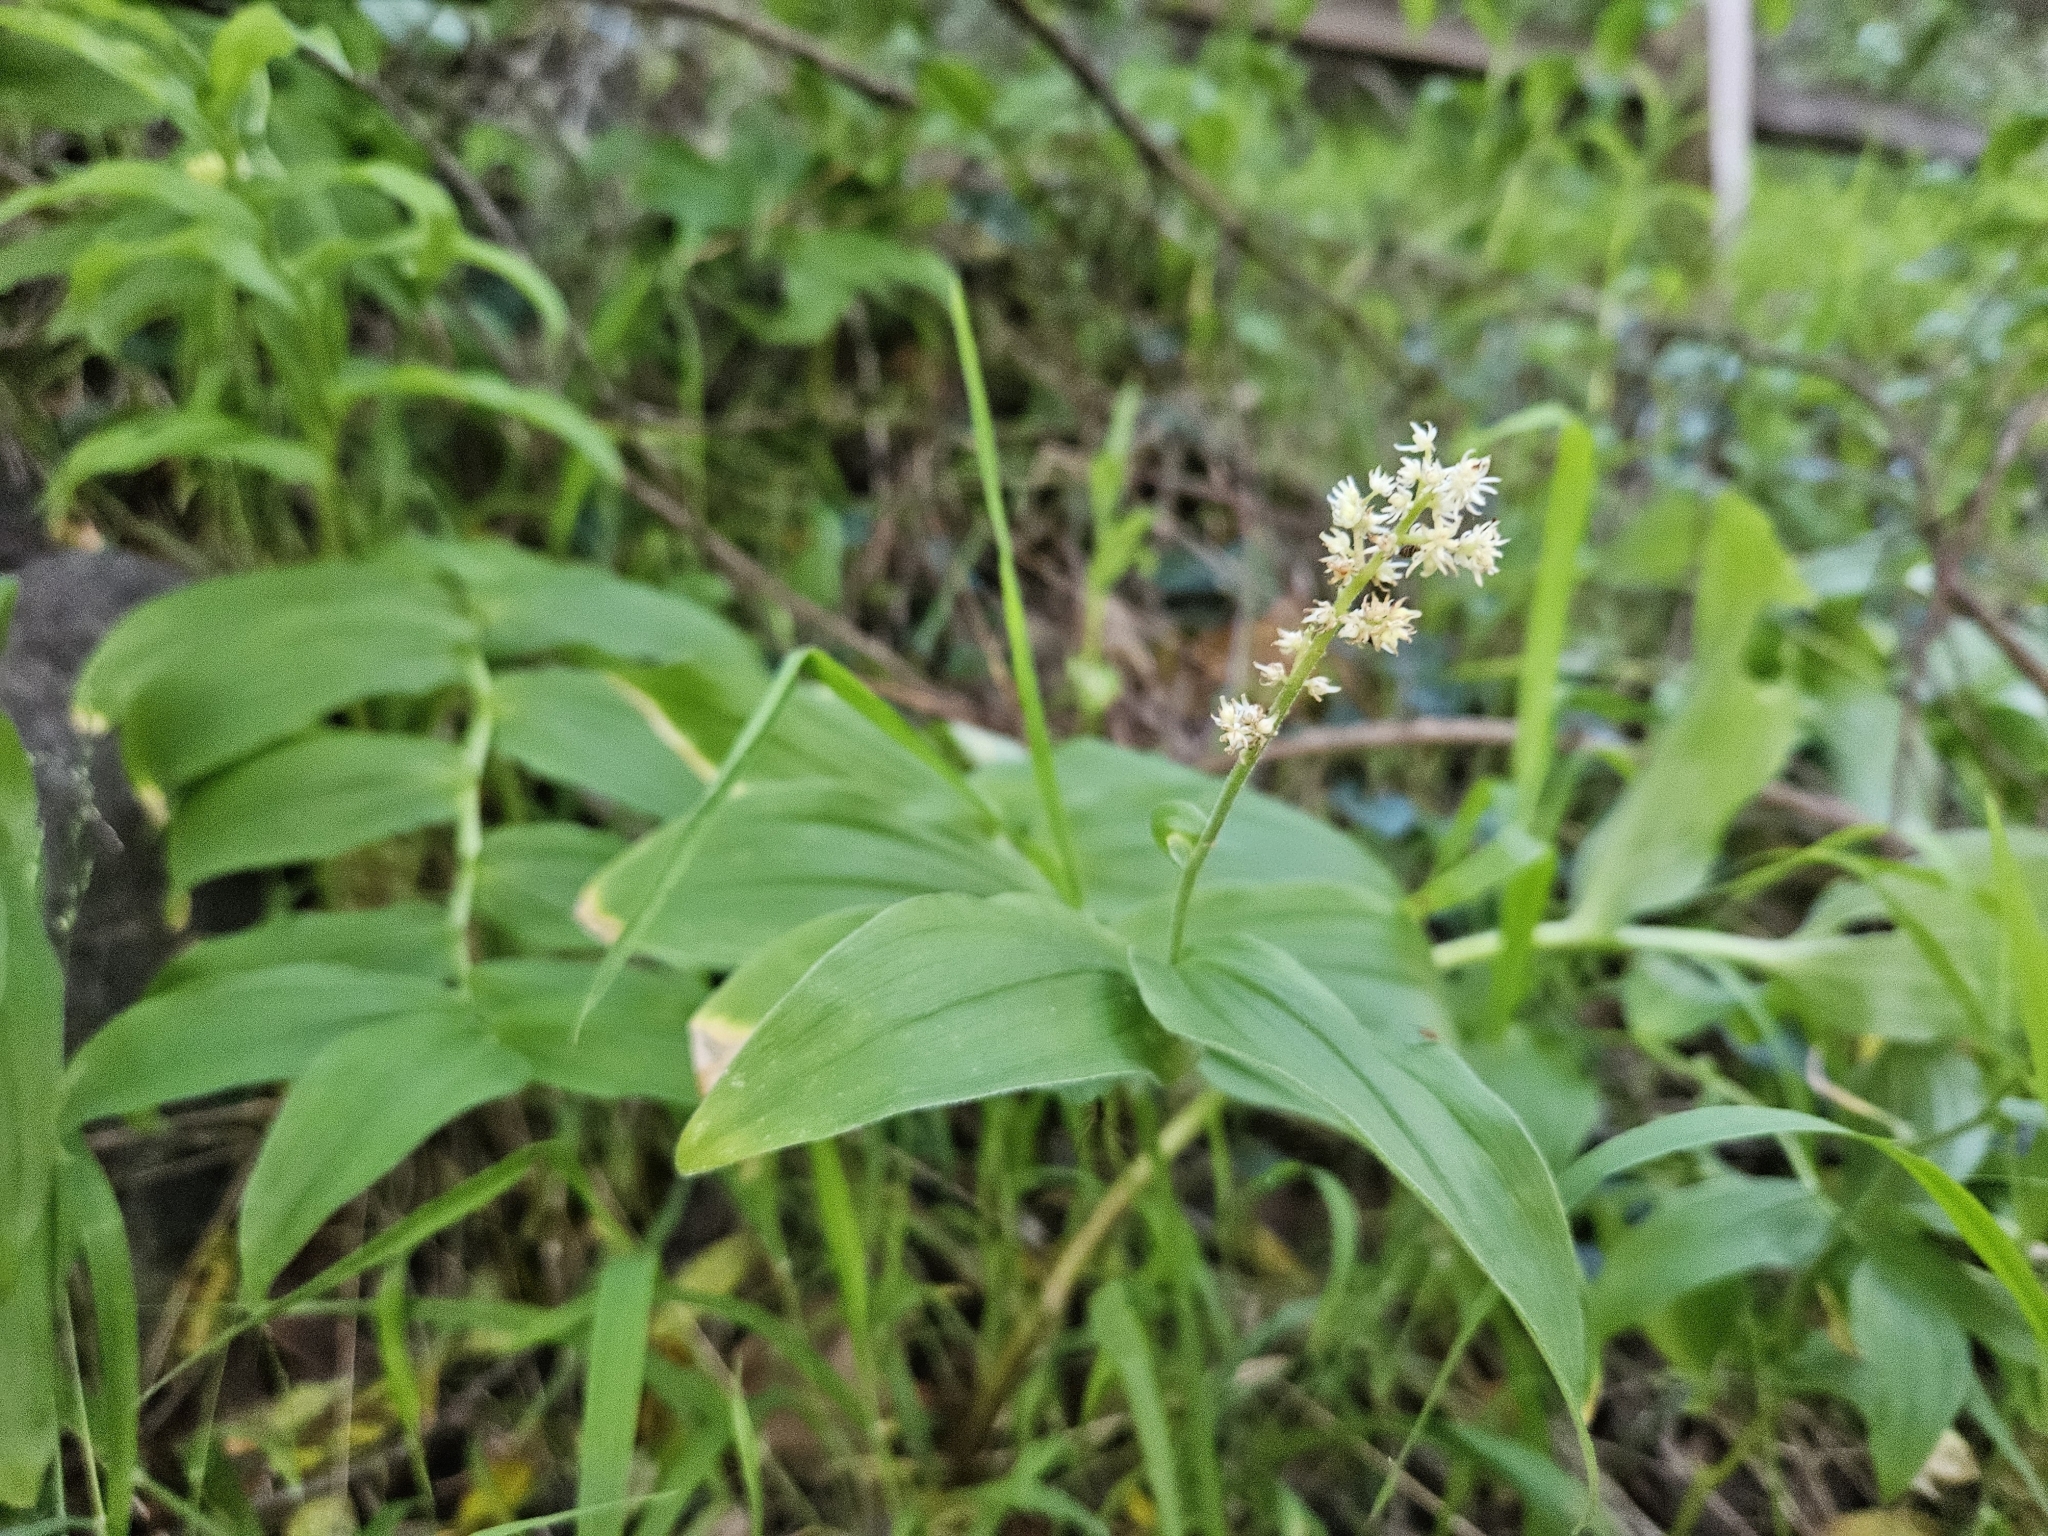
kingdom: Plantae
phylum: Tracheophyta
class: Liliopsida
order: Asparagales
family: Asparagaceae
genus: Maianthemum
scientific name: Maianthemum racemosum
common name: False spikenard
